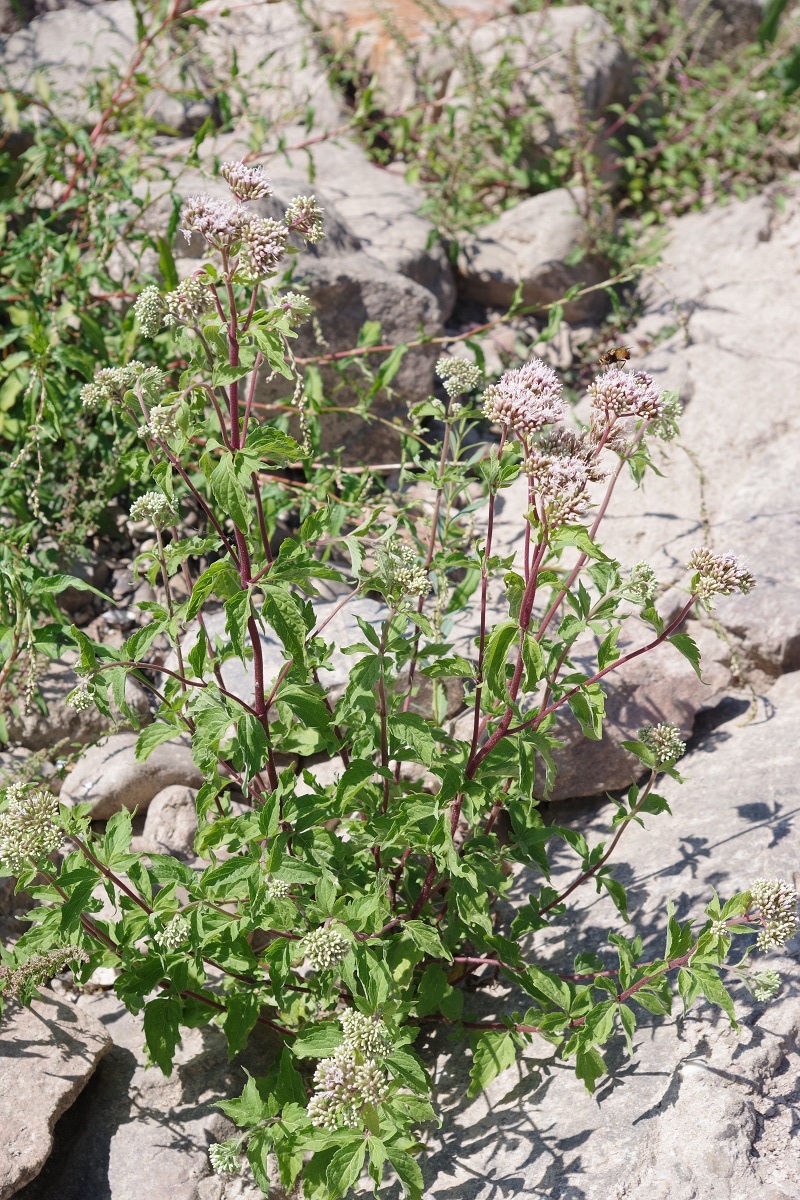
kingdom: Plantae
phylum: Tracheophyta
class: Magnoliopsida
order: Asterales
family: Asteraceae
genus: Eupatorium
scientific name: Eupatorium cannabinum
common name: Hemp-agrimony
